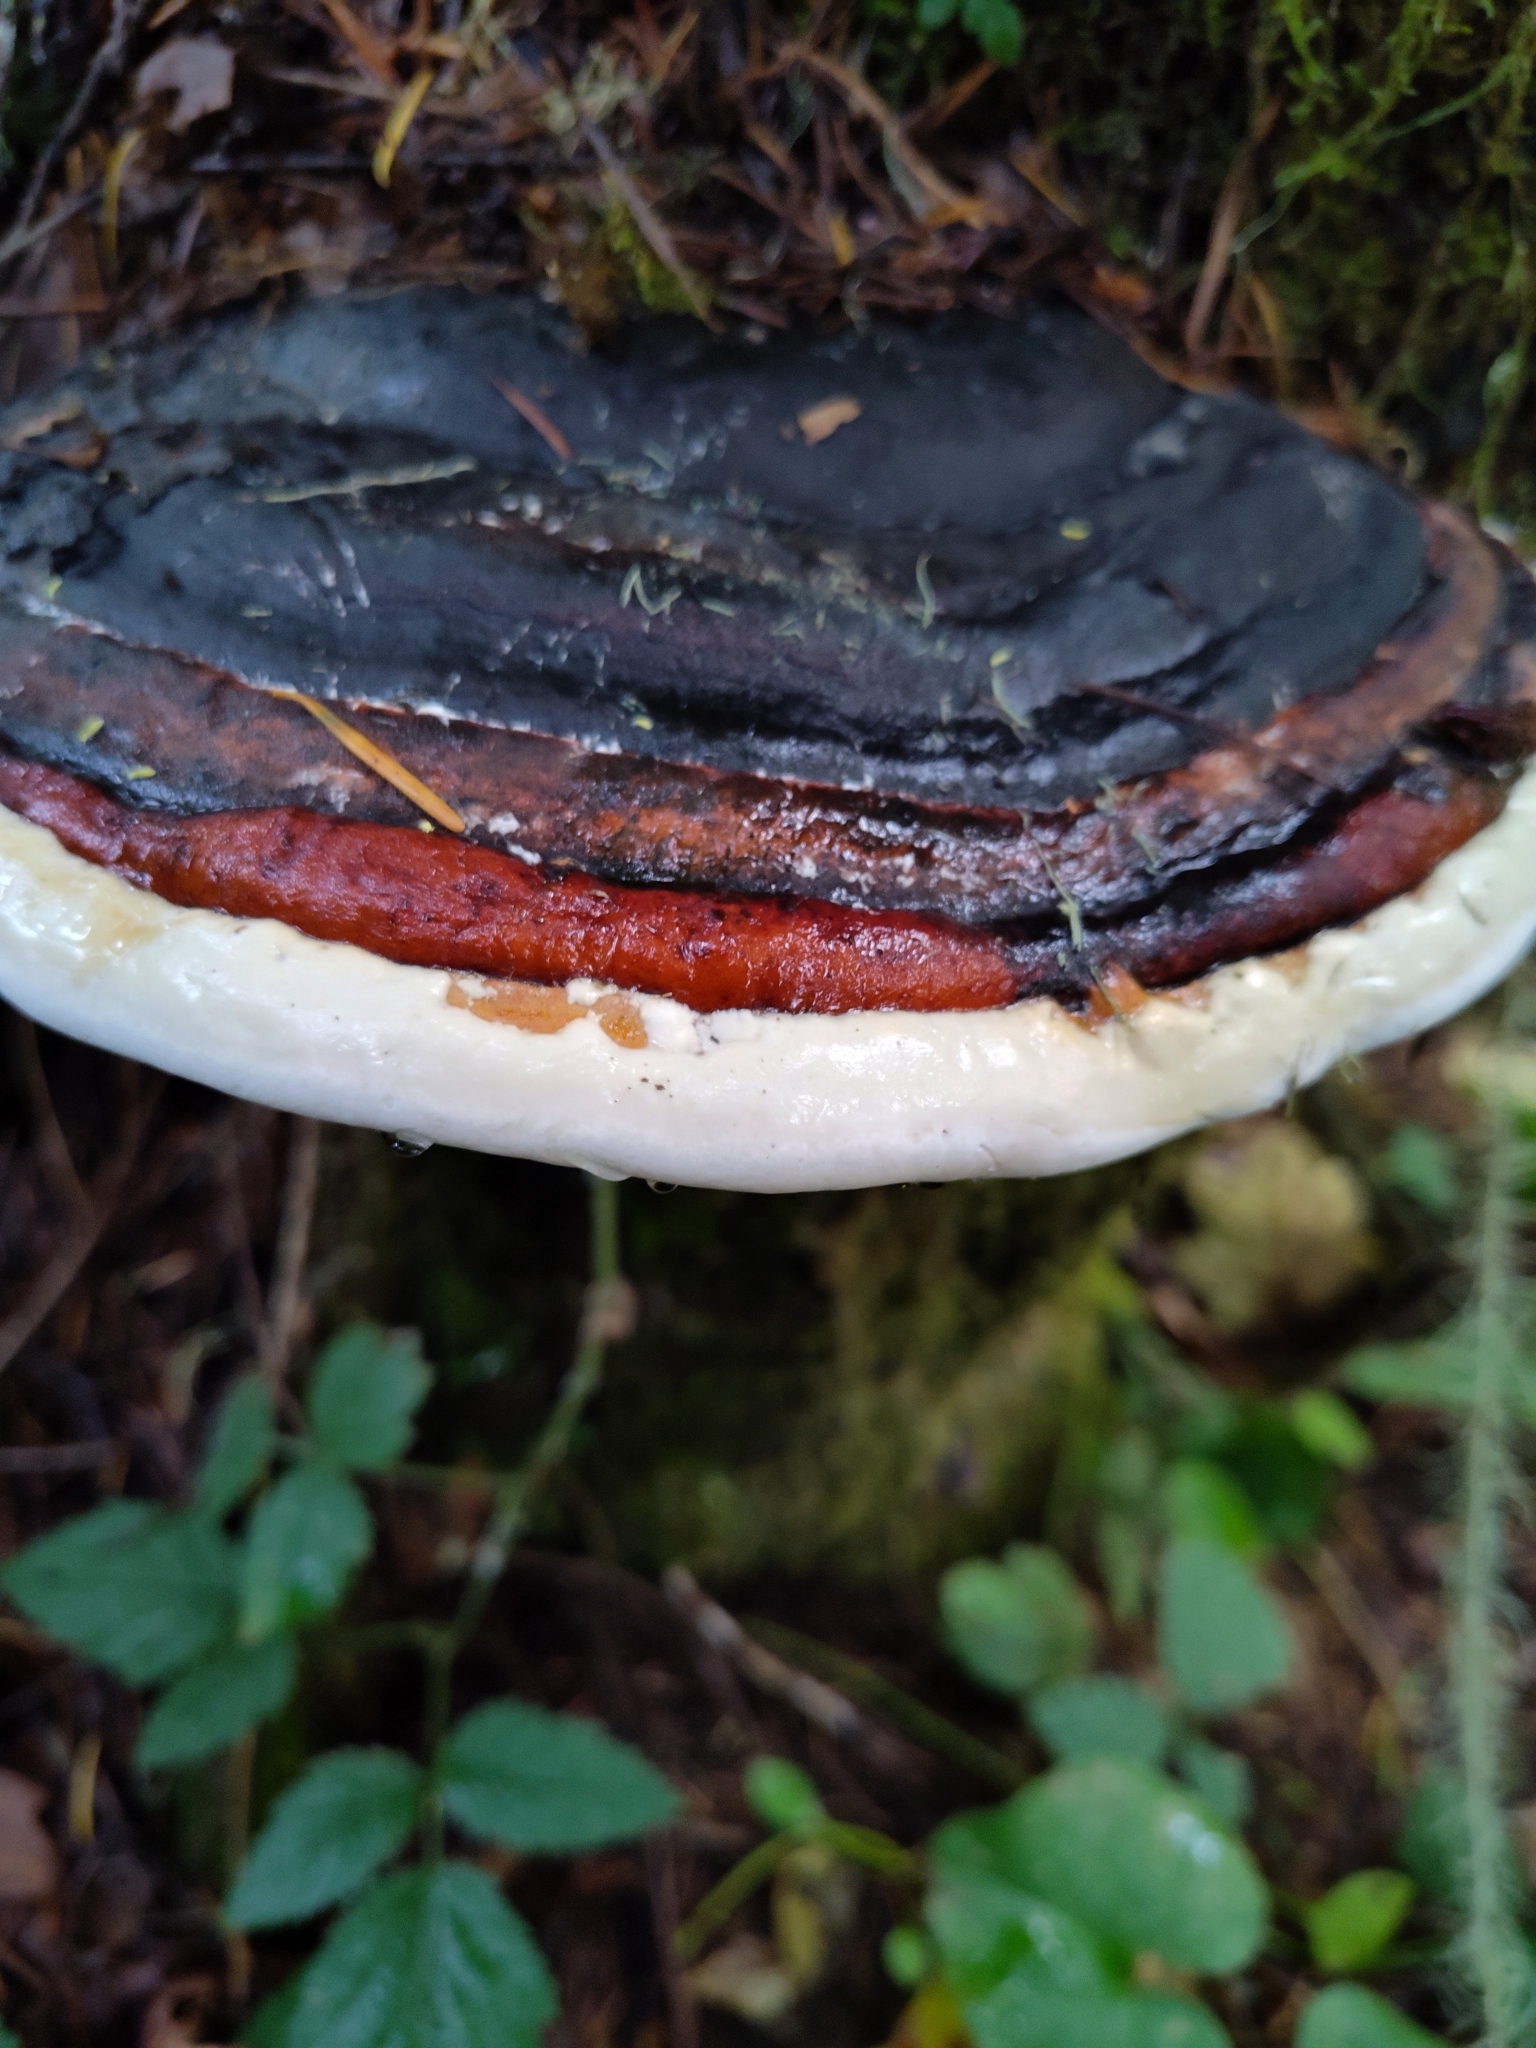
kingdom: Fungi
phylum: Basidiomycota
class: Agaricomycetes
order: Polyporales
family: Fomitopsidaceae
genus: Fomitopsis
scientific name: Fomitopsis mounceae
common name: Northern red belt
